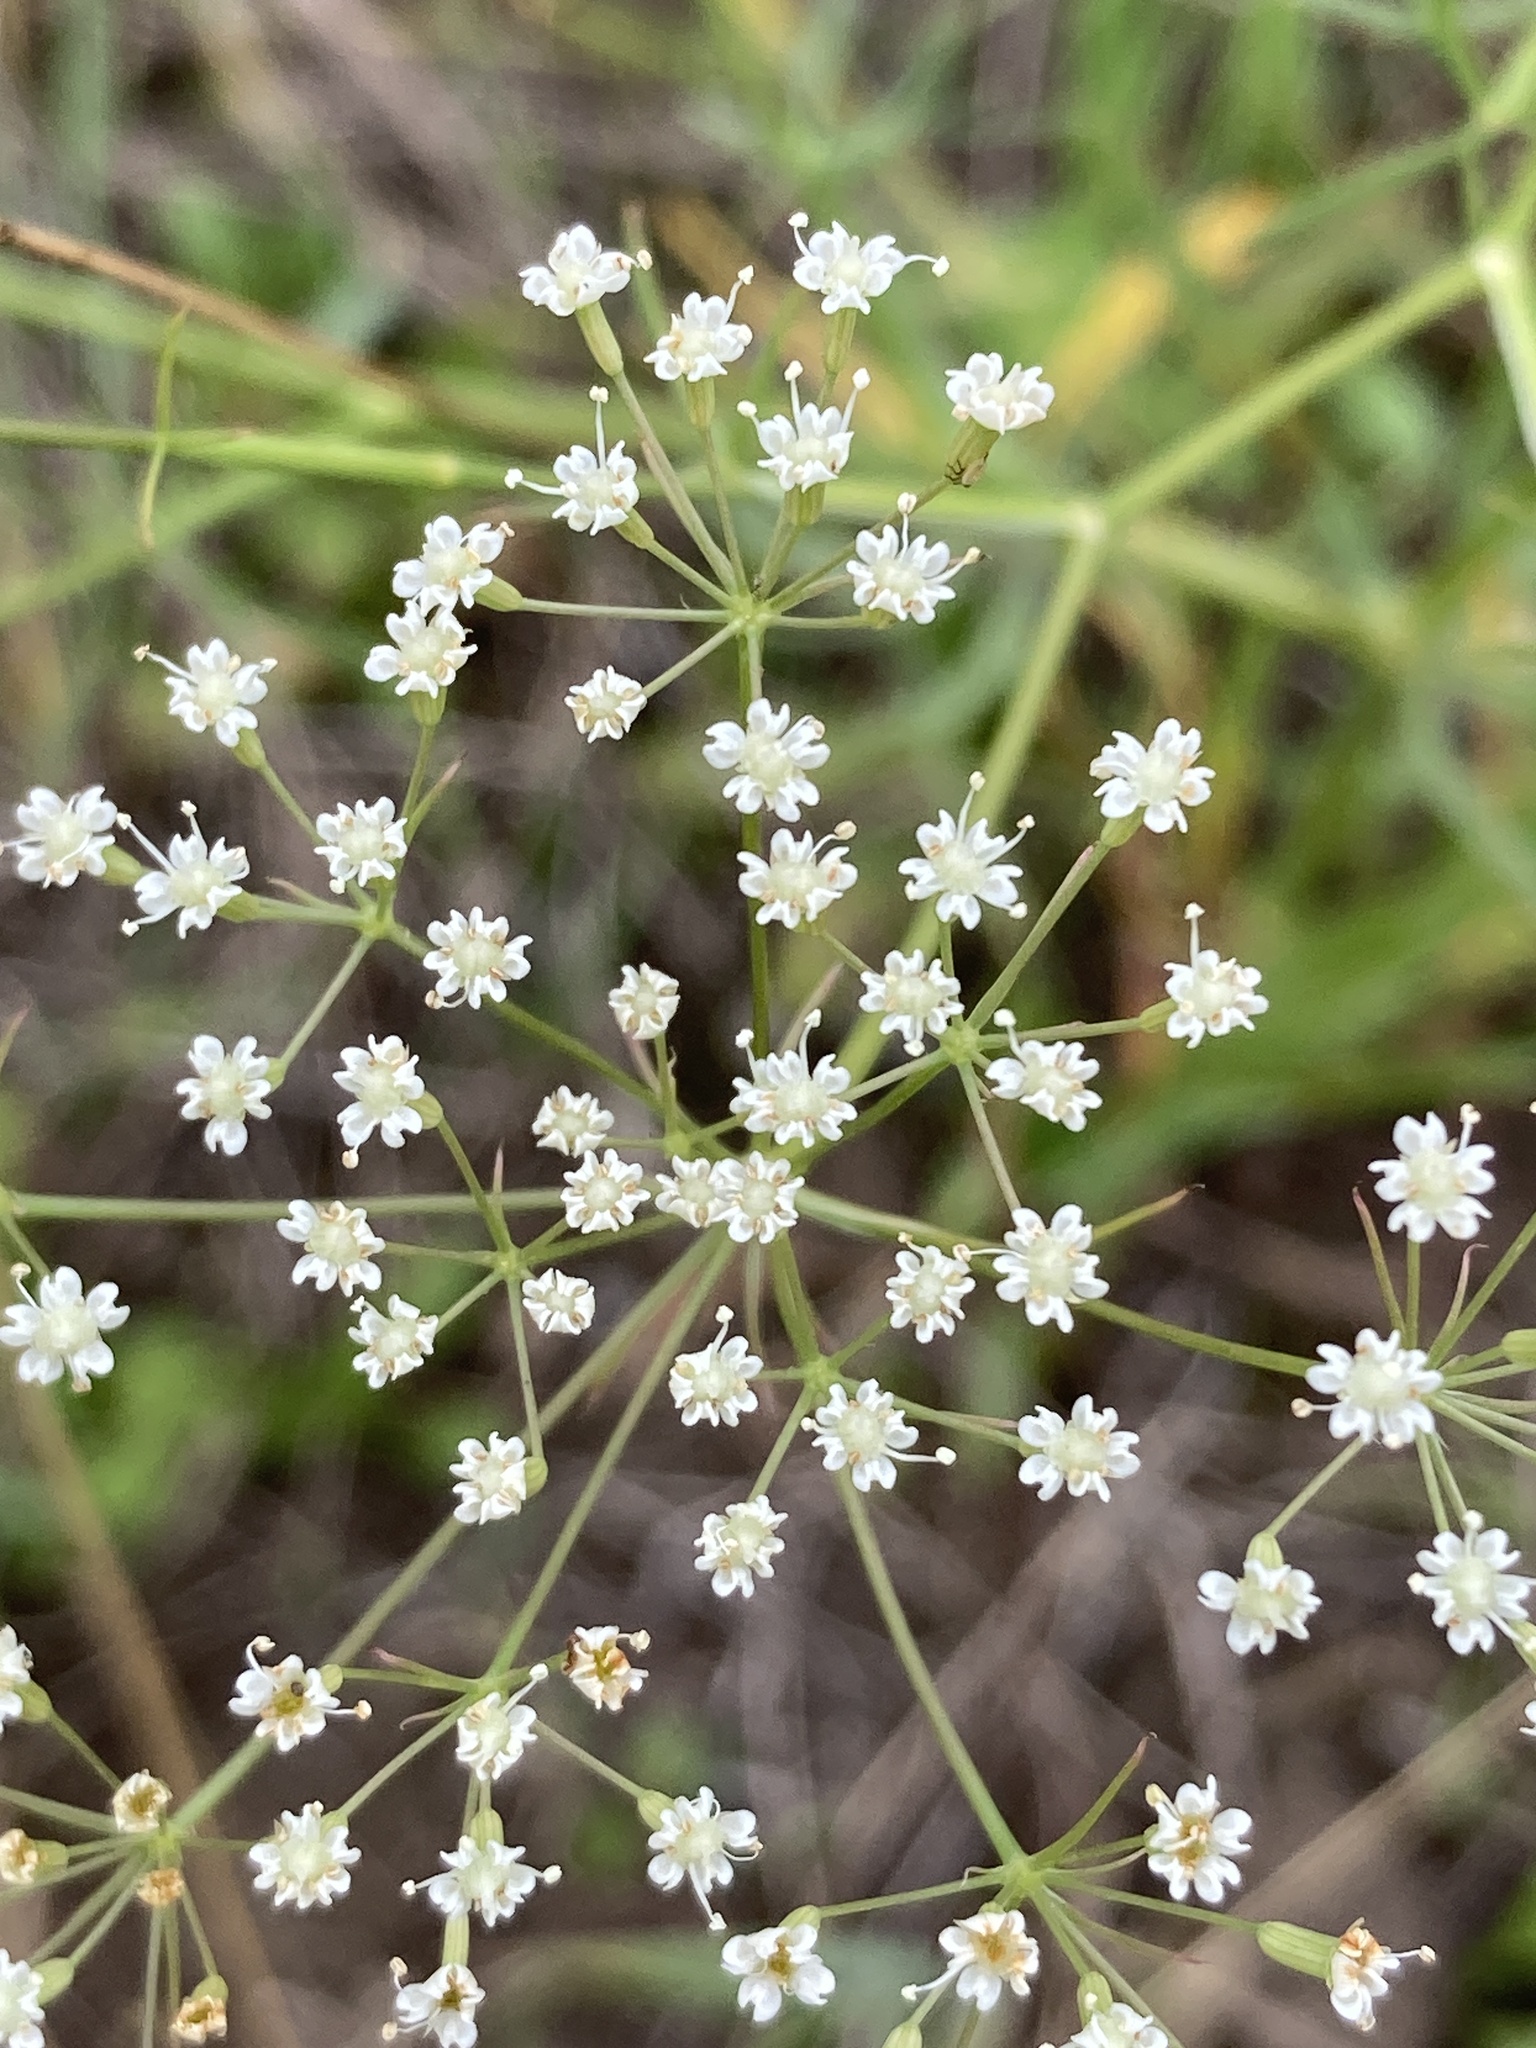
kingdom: Plantae
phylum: Tracheophyta
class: Magnoliopsida
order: Apiales
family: Apiaceae
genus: Falcaria
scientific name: Falcaria vulgaris
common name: Longleaf
